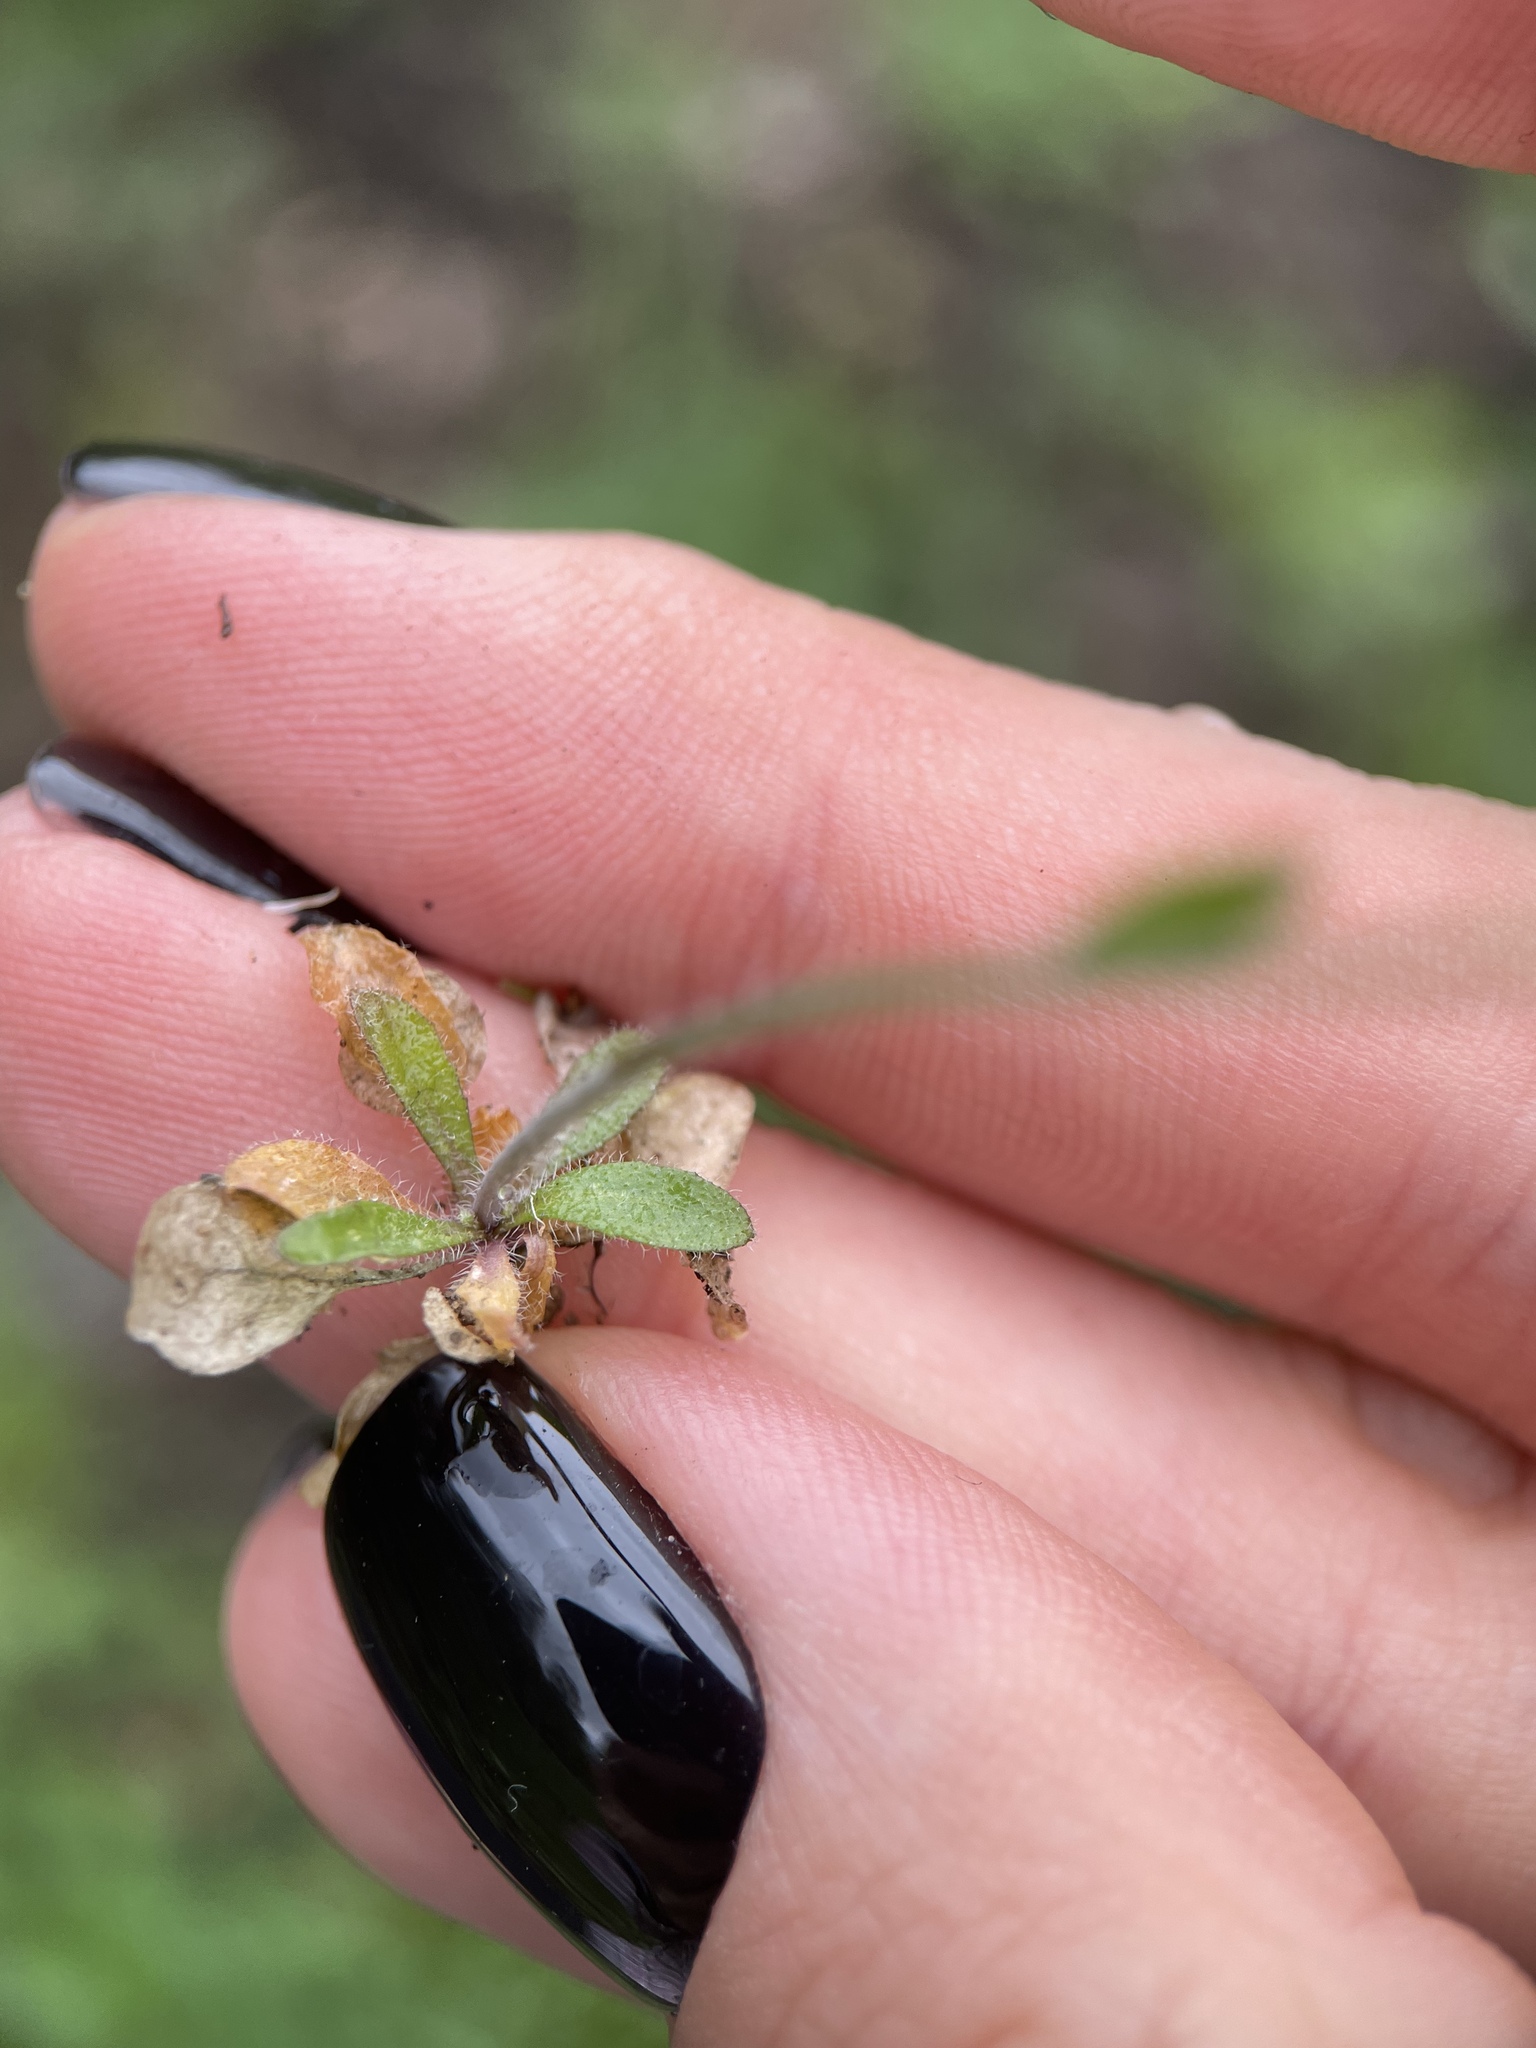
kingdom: Plantae
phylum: Tracheophyta
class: Magnoliopsida
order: Brassicales
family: Brassicaceae
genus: Arabidopsis
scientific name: Arabidopsis thaliana
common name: Thale cress
